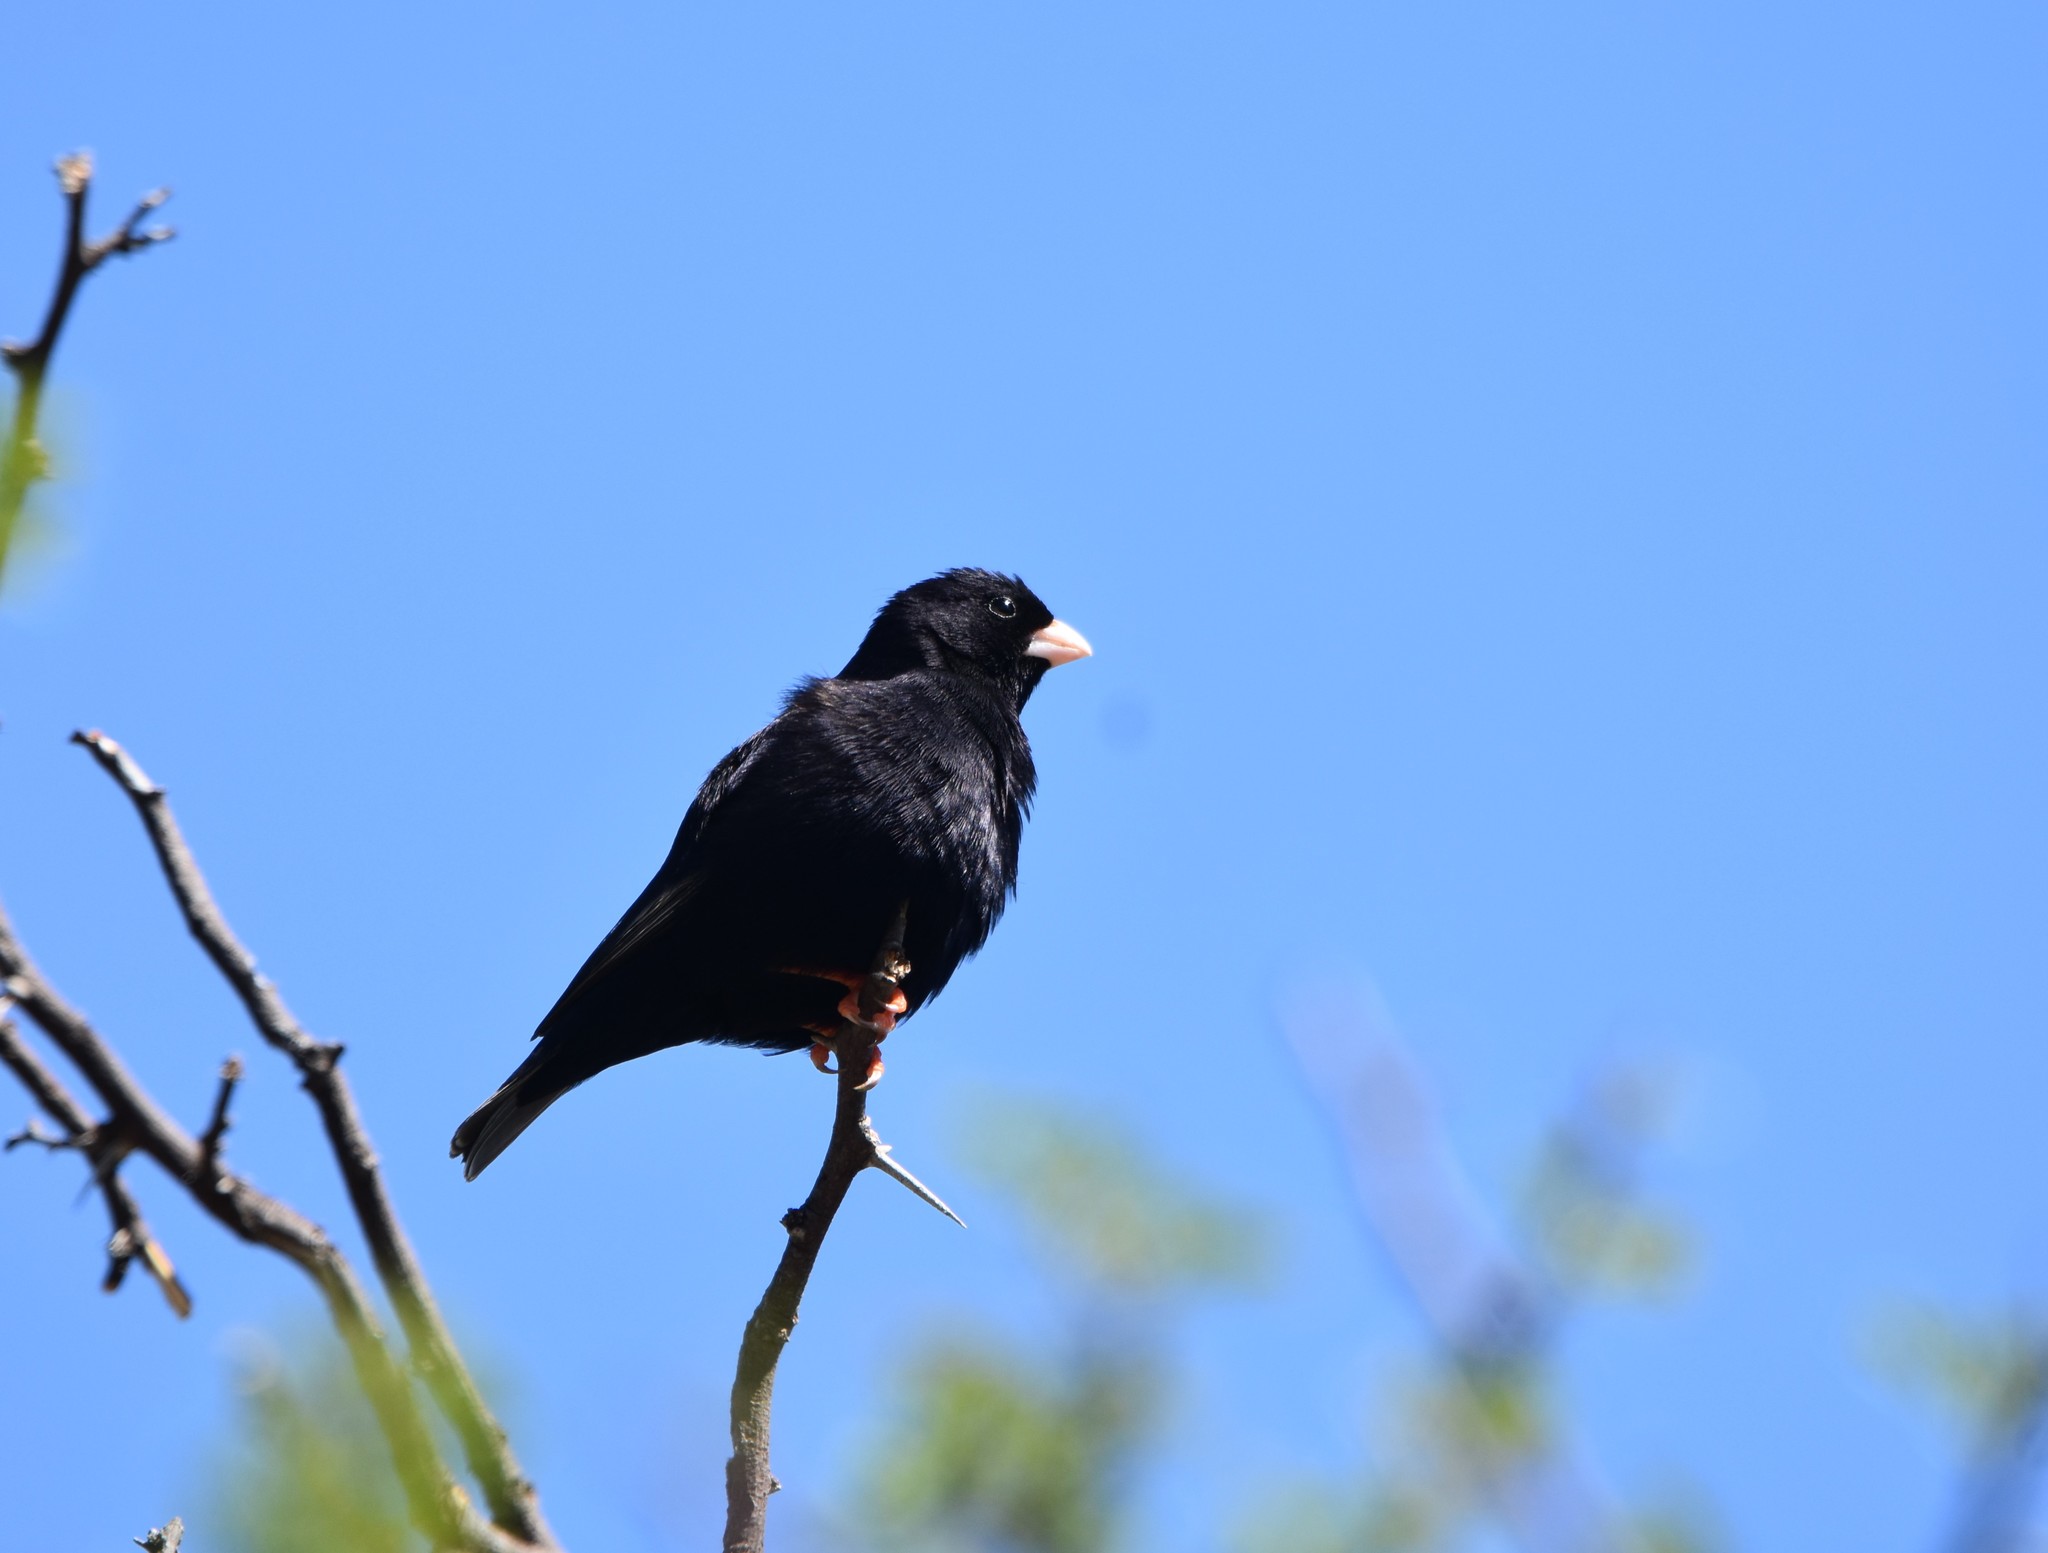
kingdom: Animalia
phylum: Chordata
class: Aves
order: Passeriformes
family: Viduidae
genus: Vidua
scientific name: Vidua funerea
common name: Dusky indigobird
